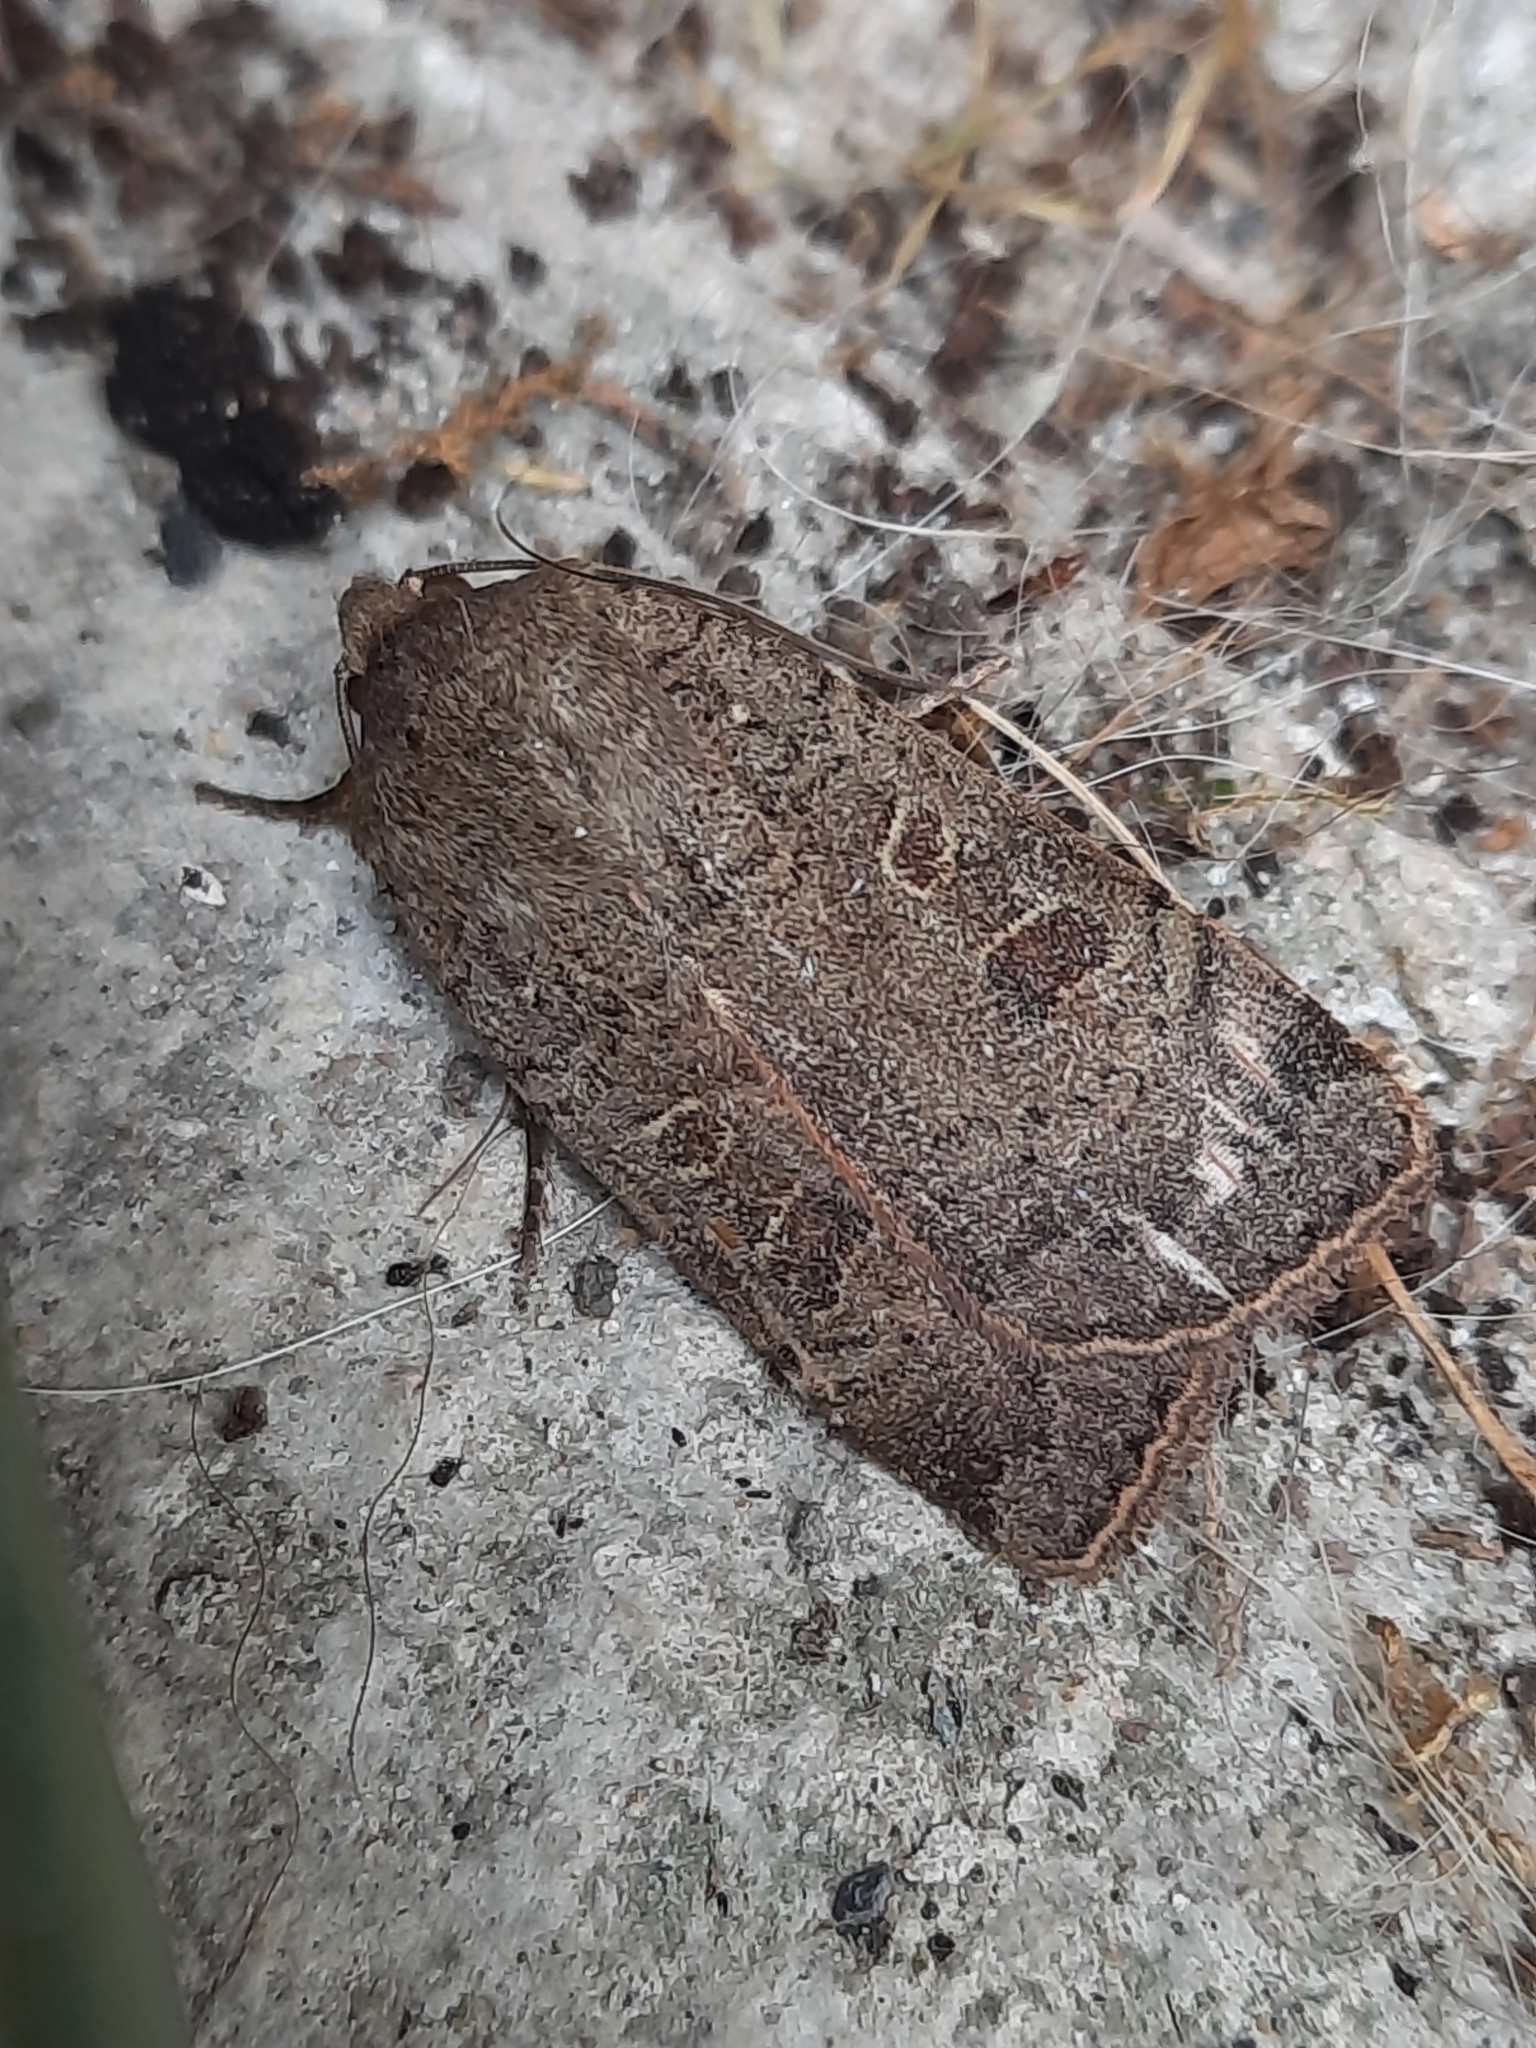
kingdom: Animalia
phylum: Arthropoda
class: Insecta
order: Lepidoptera
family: Noctuidae
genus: Noctua
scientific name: Noctua comes
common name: Lesser yellow underwing
